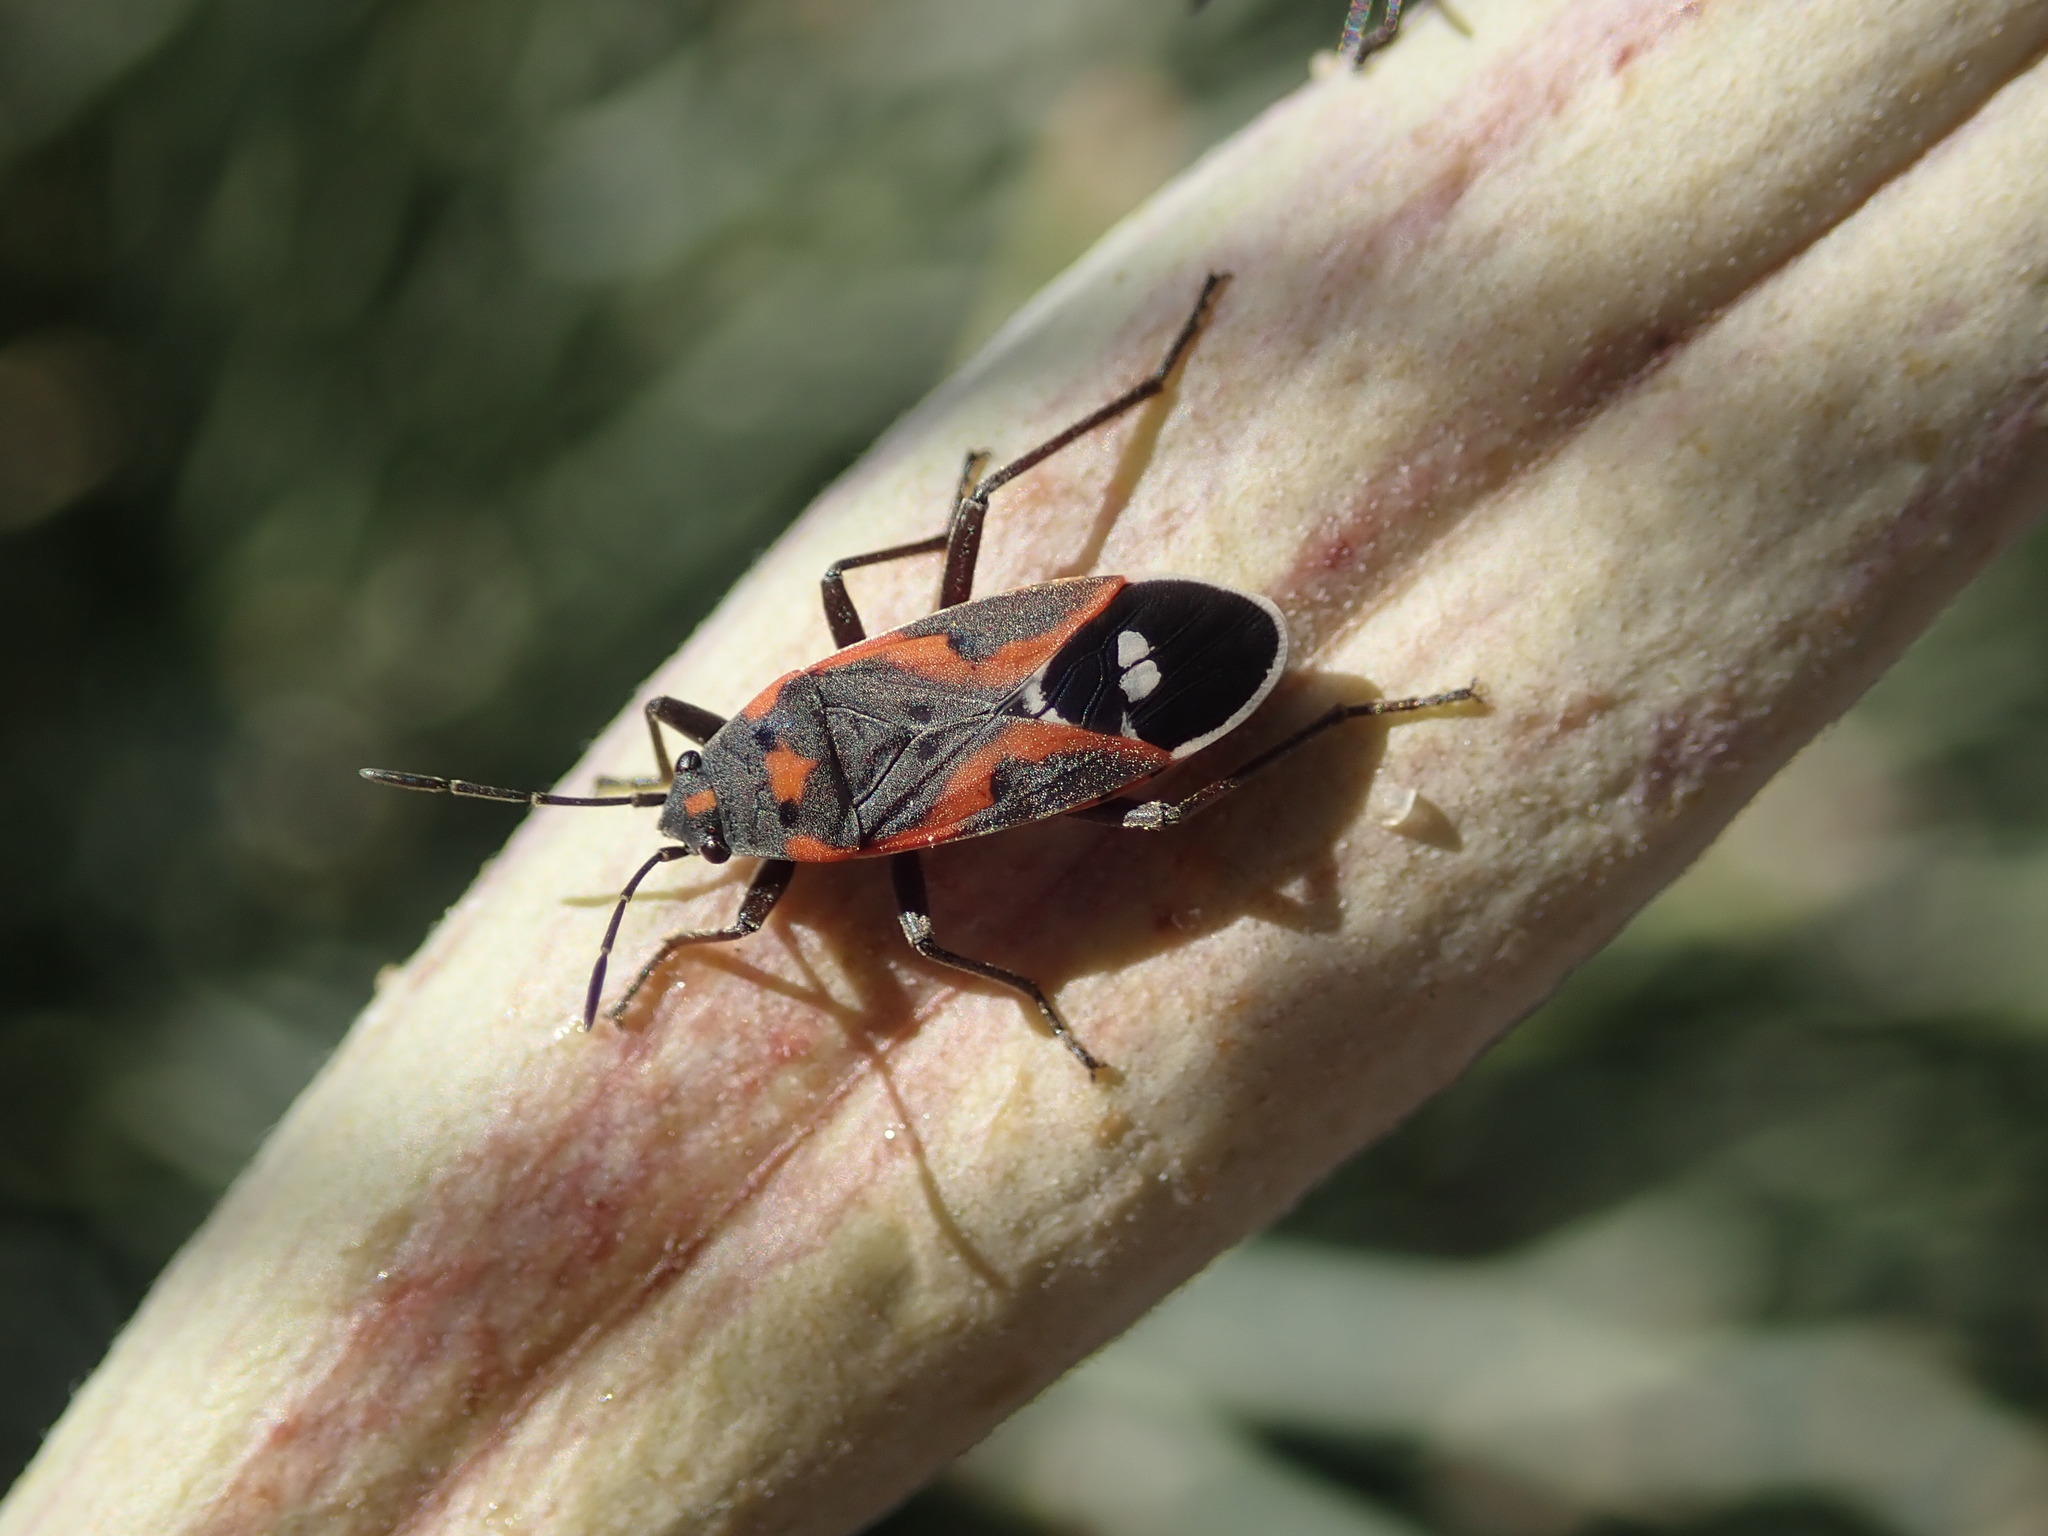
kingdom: Animalia
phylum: Arthropoda
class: Insecta
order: Hemiptera
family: Lygaeidae
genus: Lygaeus
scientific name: Lygaeus kalmii
